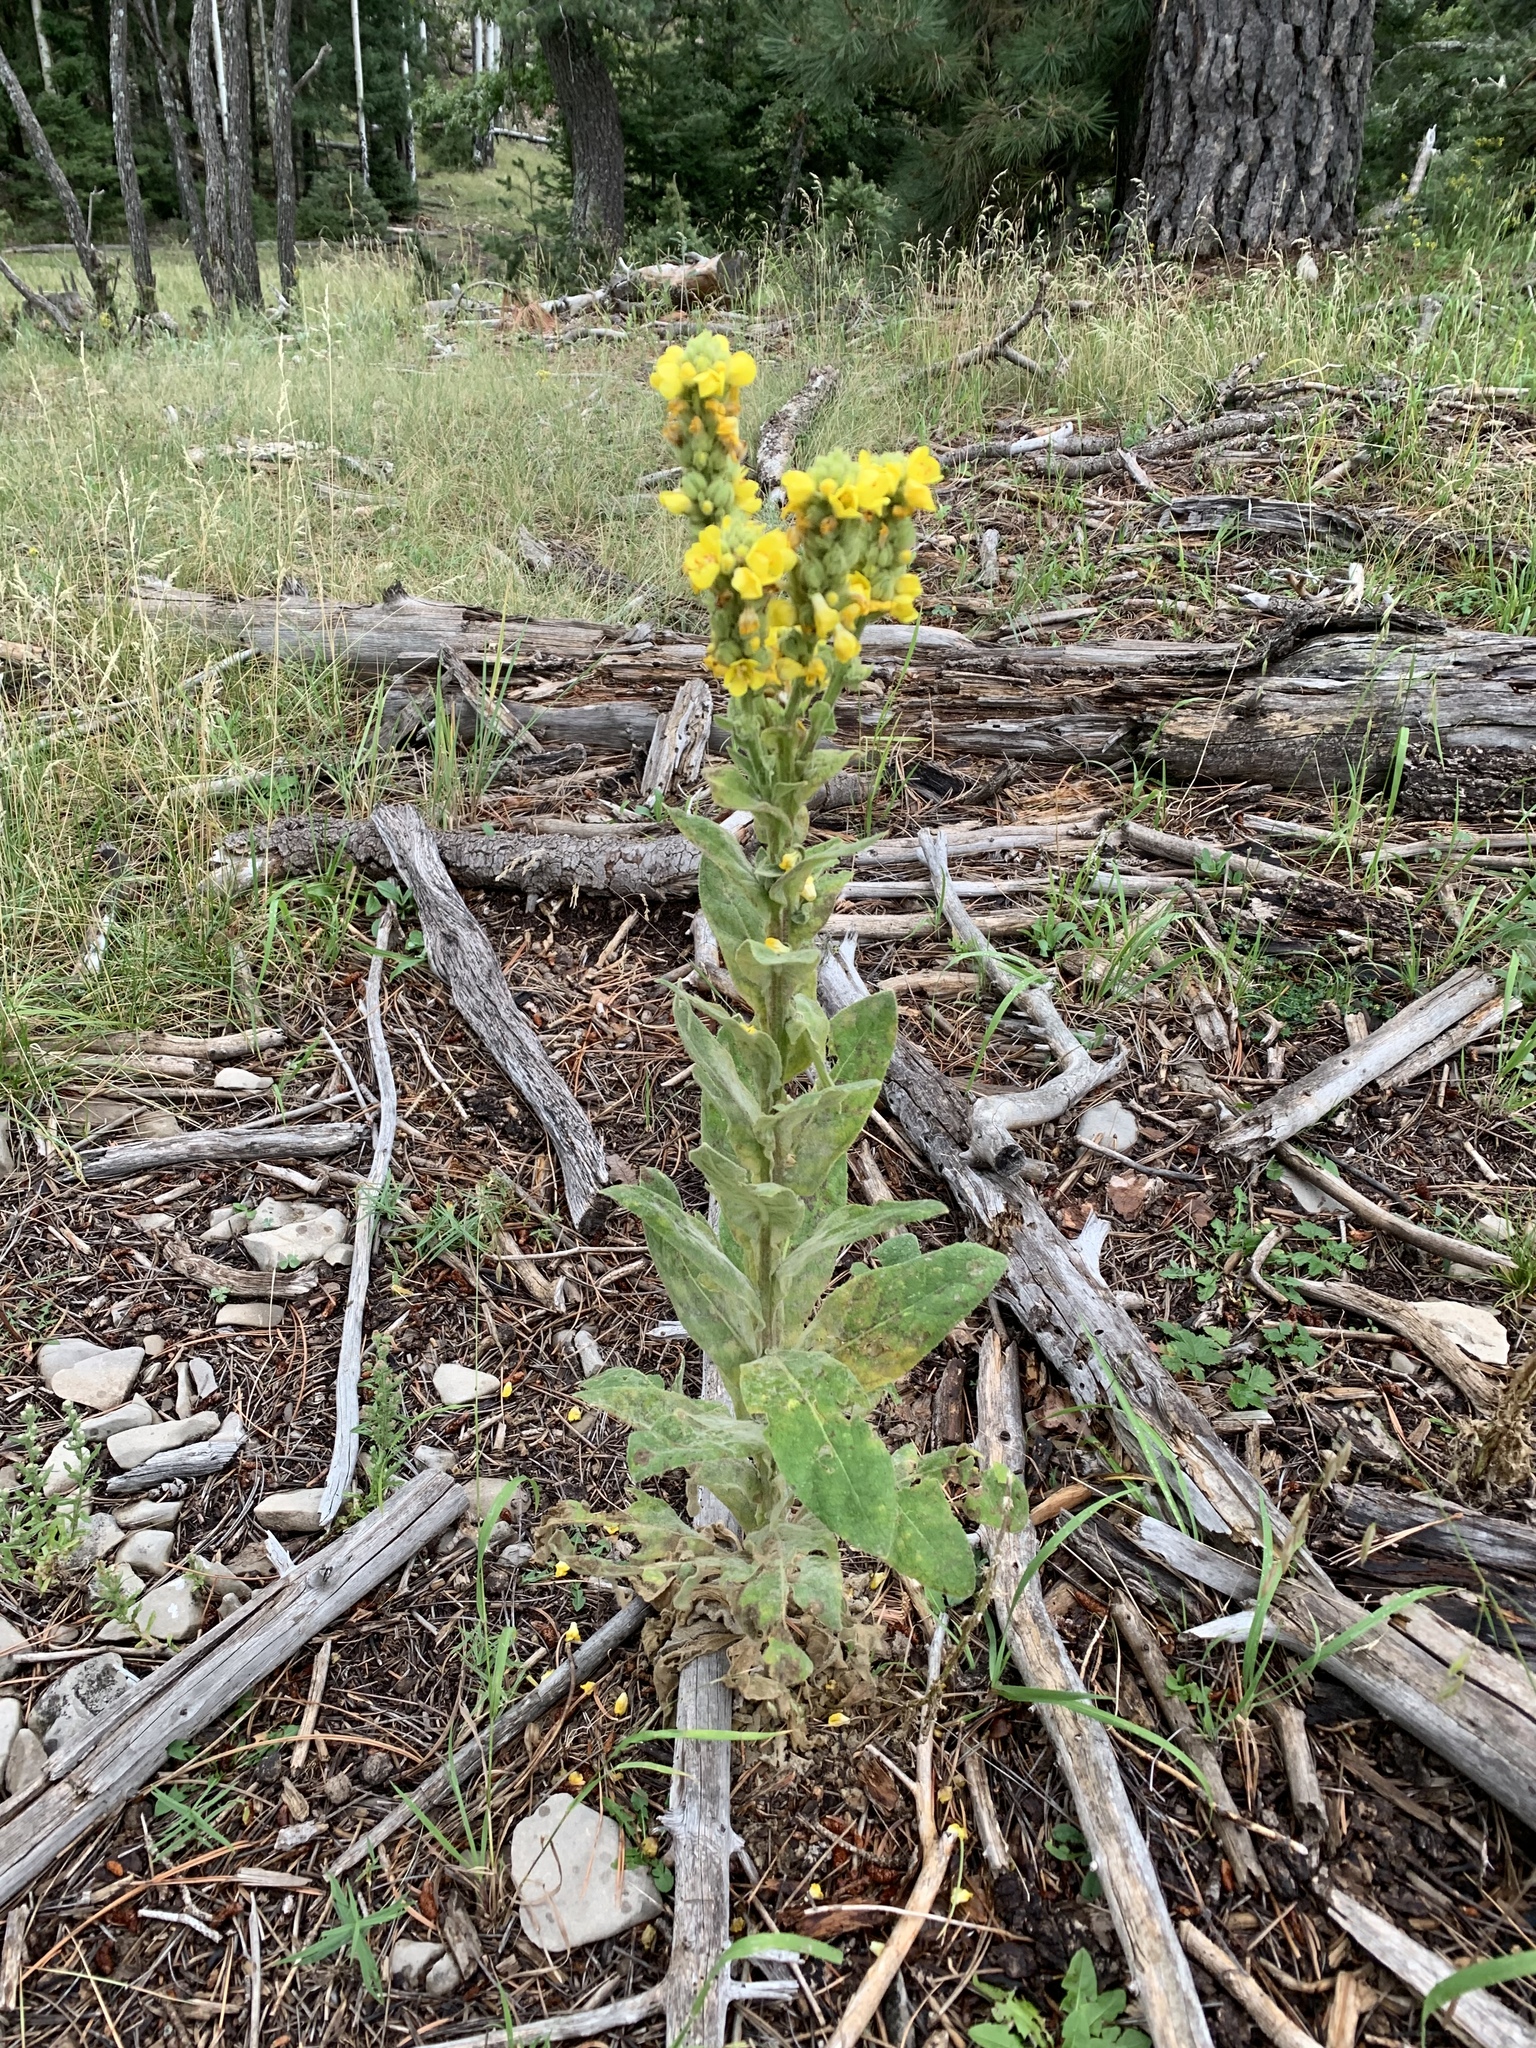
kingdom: Plantae
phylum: Tracheophyta
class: Magnoliopsida
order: Lamiales
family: Scrophulariaceae
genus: Verbascum
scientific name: Verbascum thapsus
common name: Common mullein
